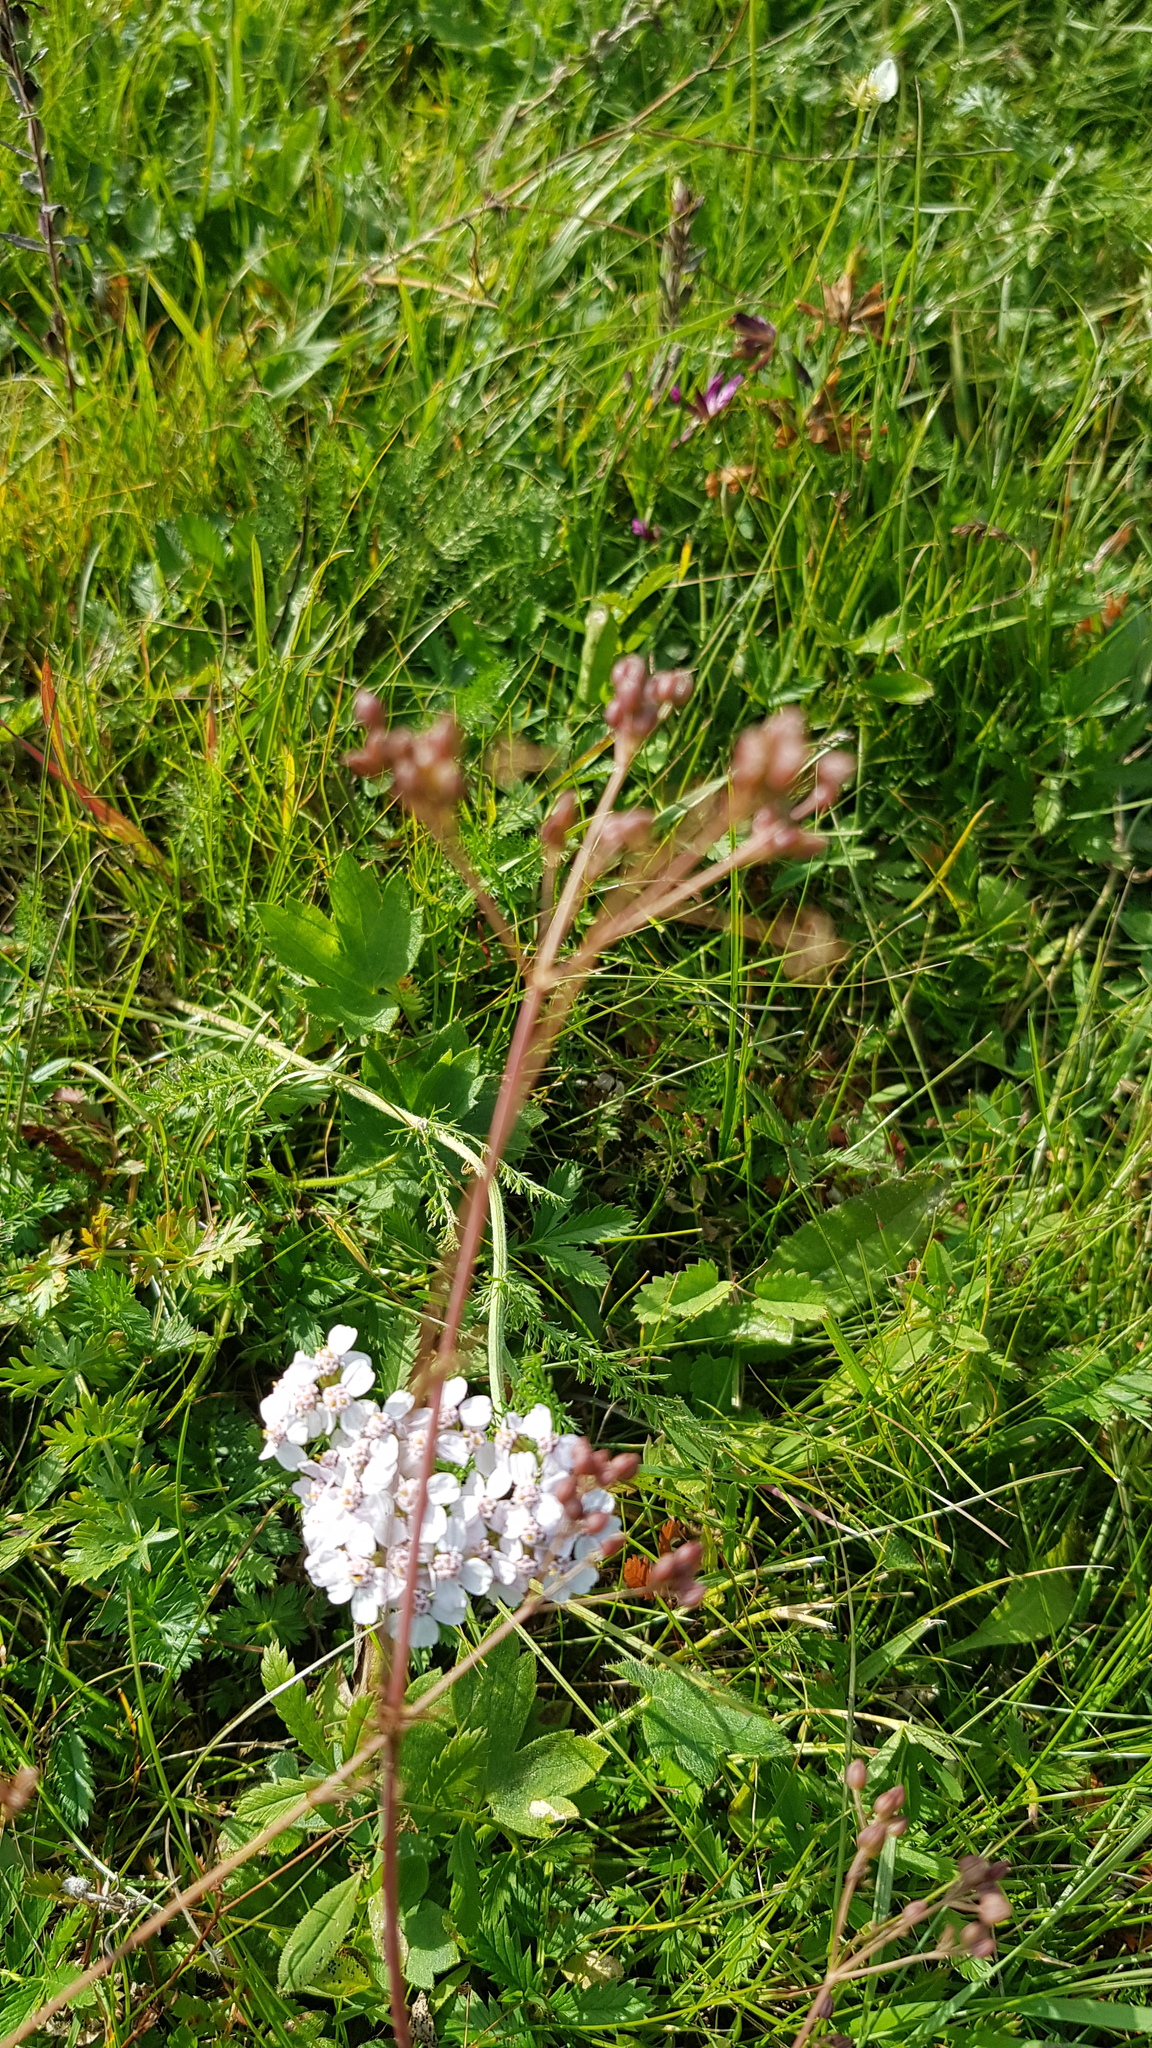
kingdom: Plantae
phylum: Tracheophyta
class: Magnoliopsida
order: Asterales
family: Asteraceae
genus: Achillea
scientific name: Achillea asiatica
